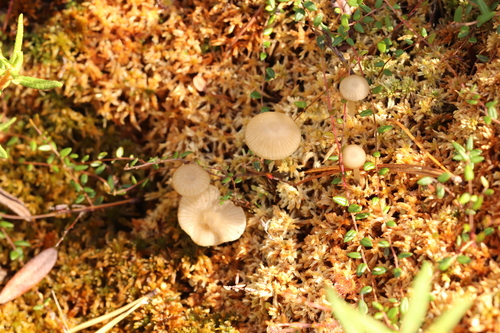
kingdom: Fungi
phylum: Basidiomycota
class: Agaricomycetes
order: Agaricales
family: Lyophyllaceae
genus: Sphagnurus
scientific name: Sphagnurus paluster
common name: Sphagnum greyling
